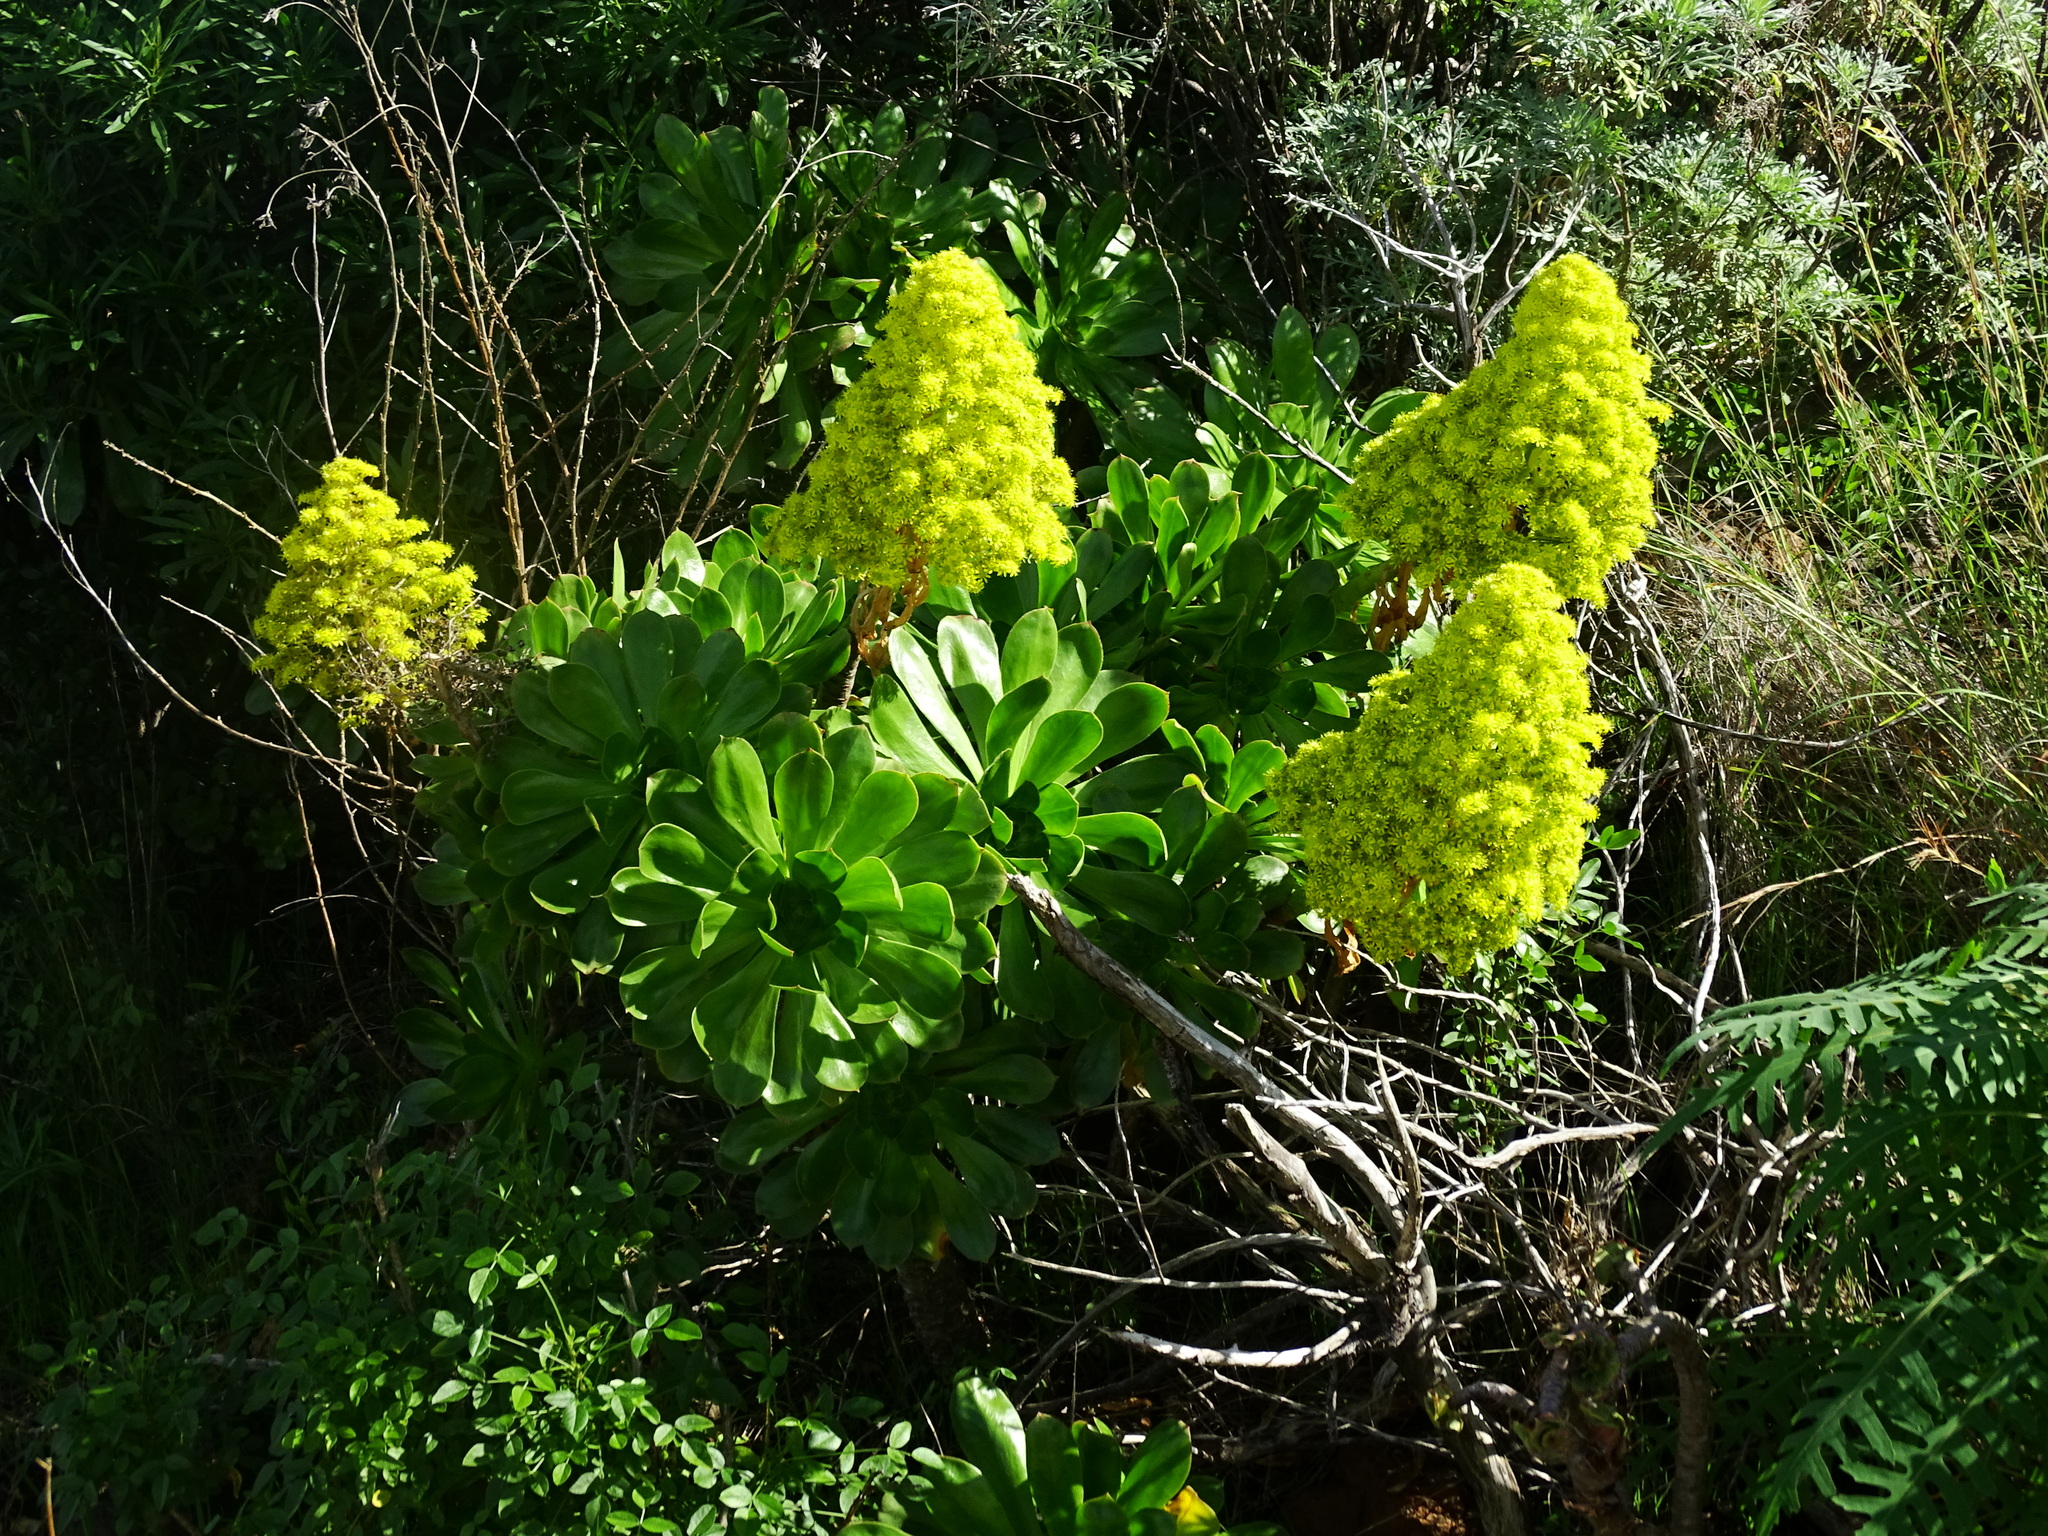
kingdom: Plantae
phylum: Tracheophyta
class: Magnoliopsida
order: Saxifragales
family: Crassulaceae
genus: Aeonium
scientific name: Aeonium arboreum
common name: Tree aeonium
